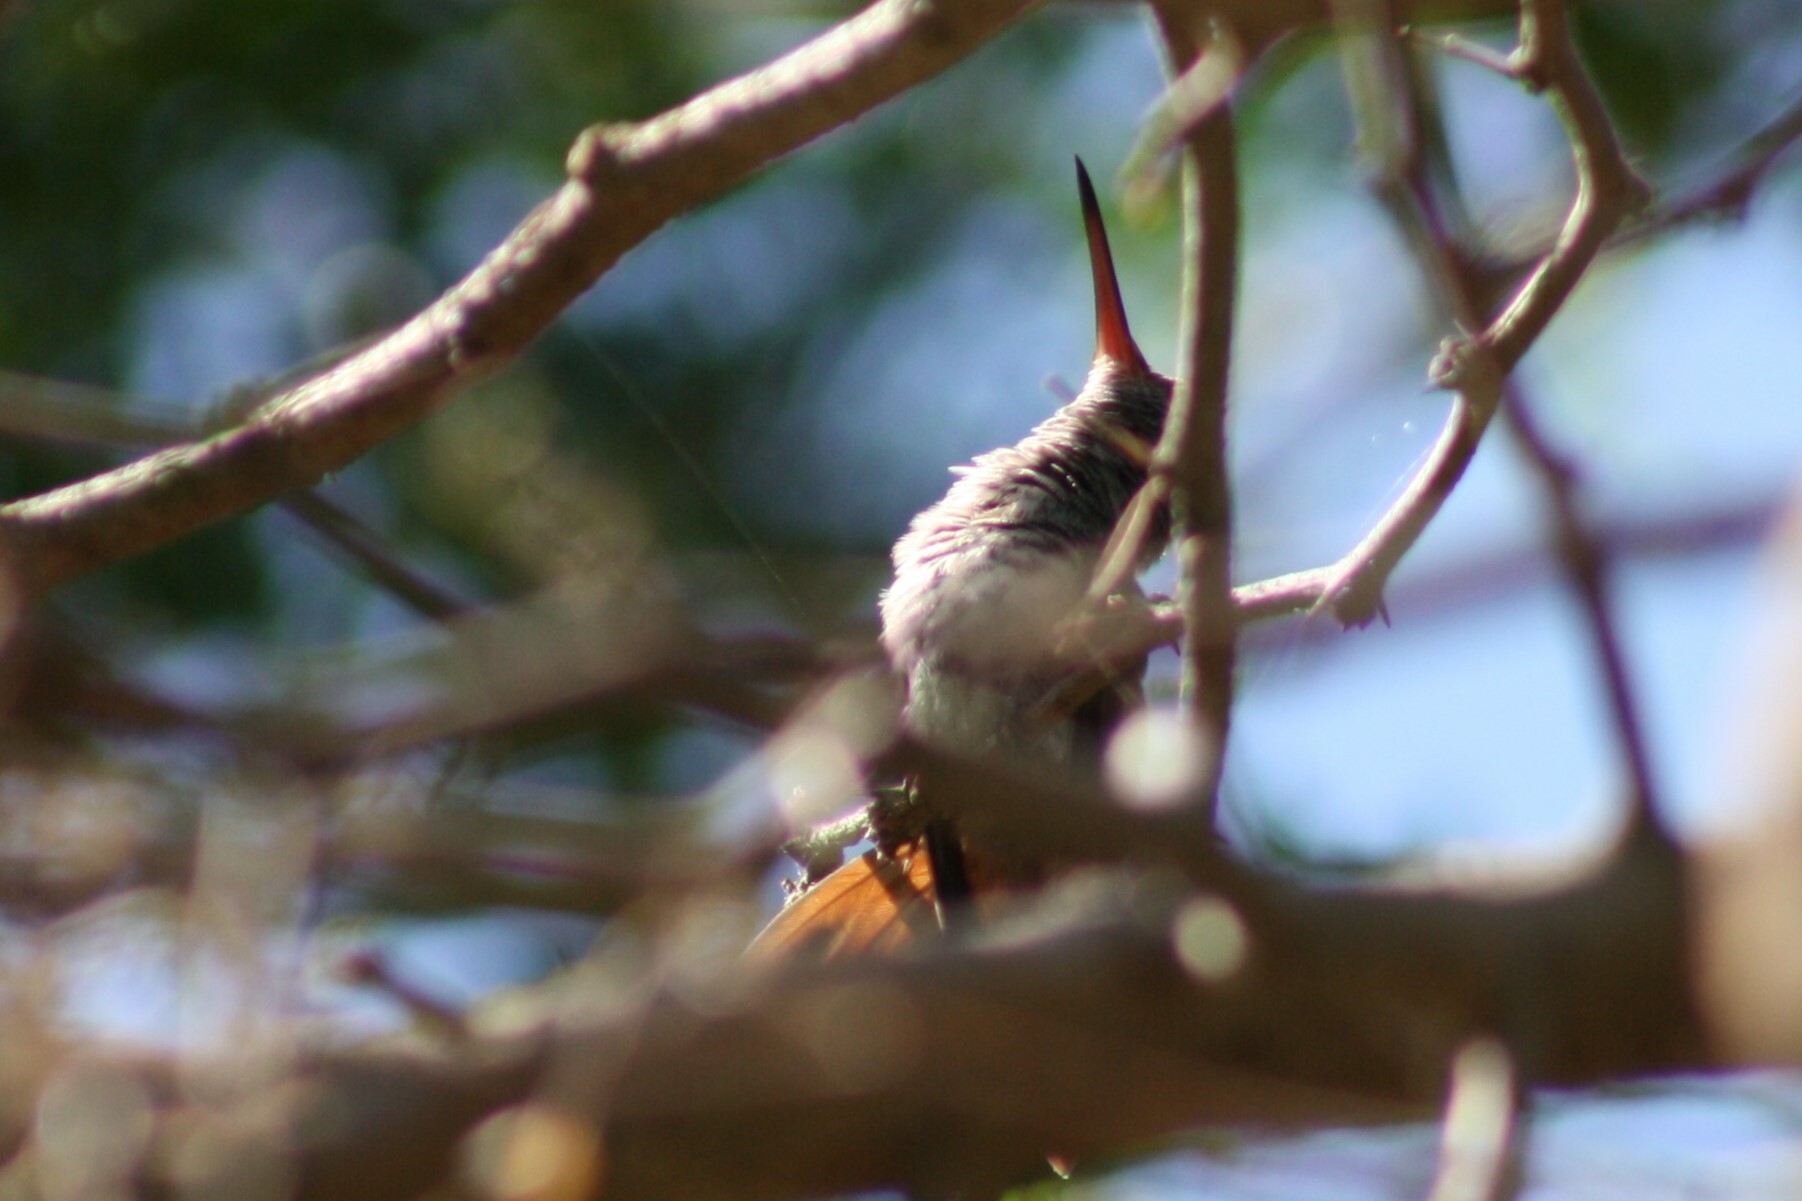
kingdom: Animalia
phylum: Chordata
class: Aves
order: Apodiformes
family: Trochilidae
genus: Amazilia
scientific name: Amazilia yucatanensis
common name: Buff-bellied hummingbird
